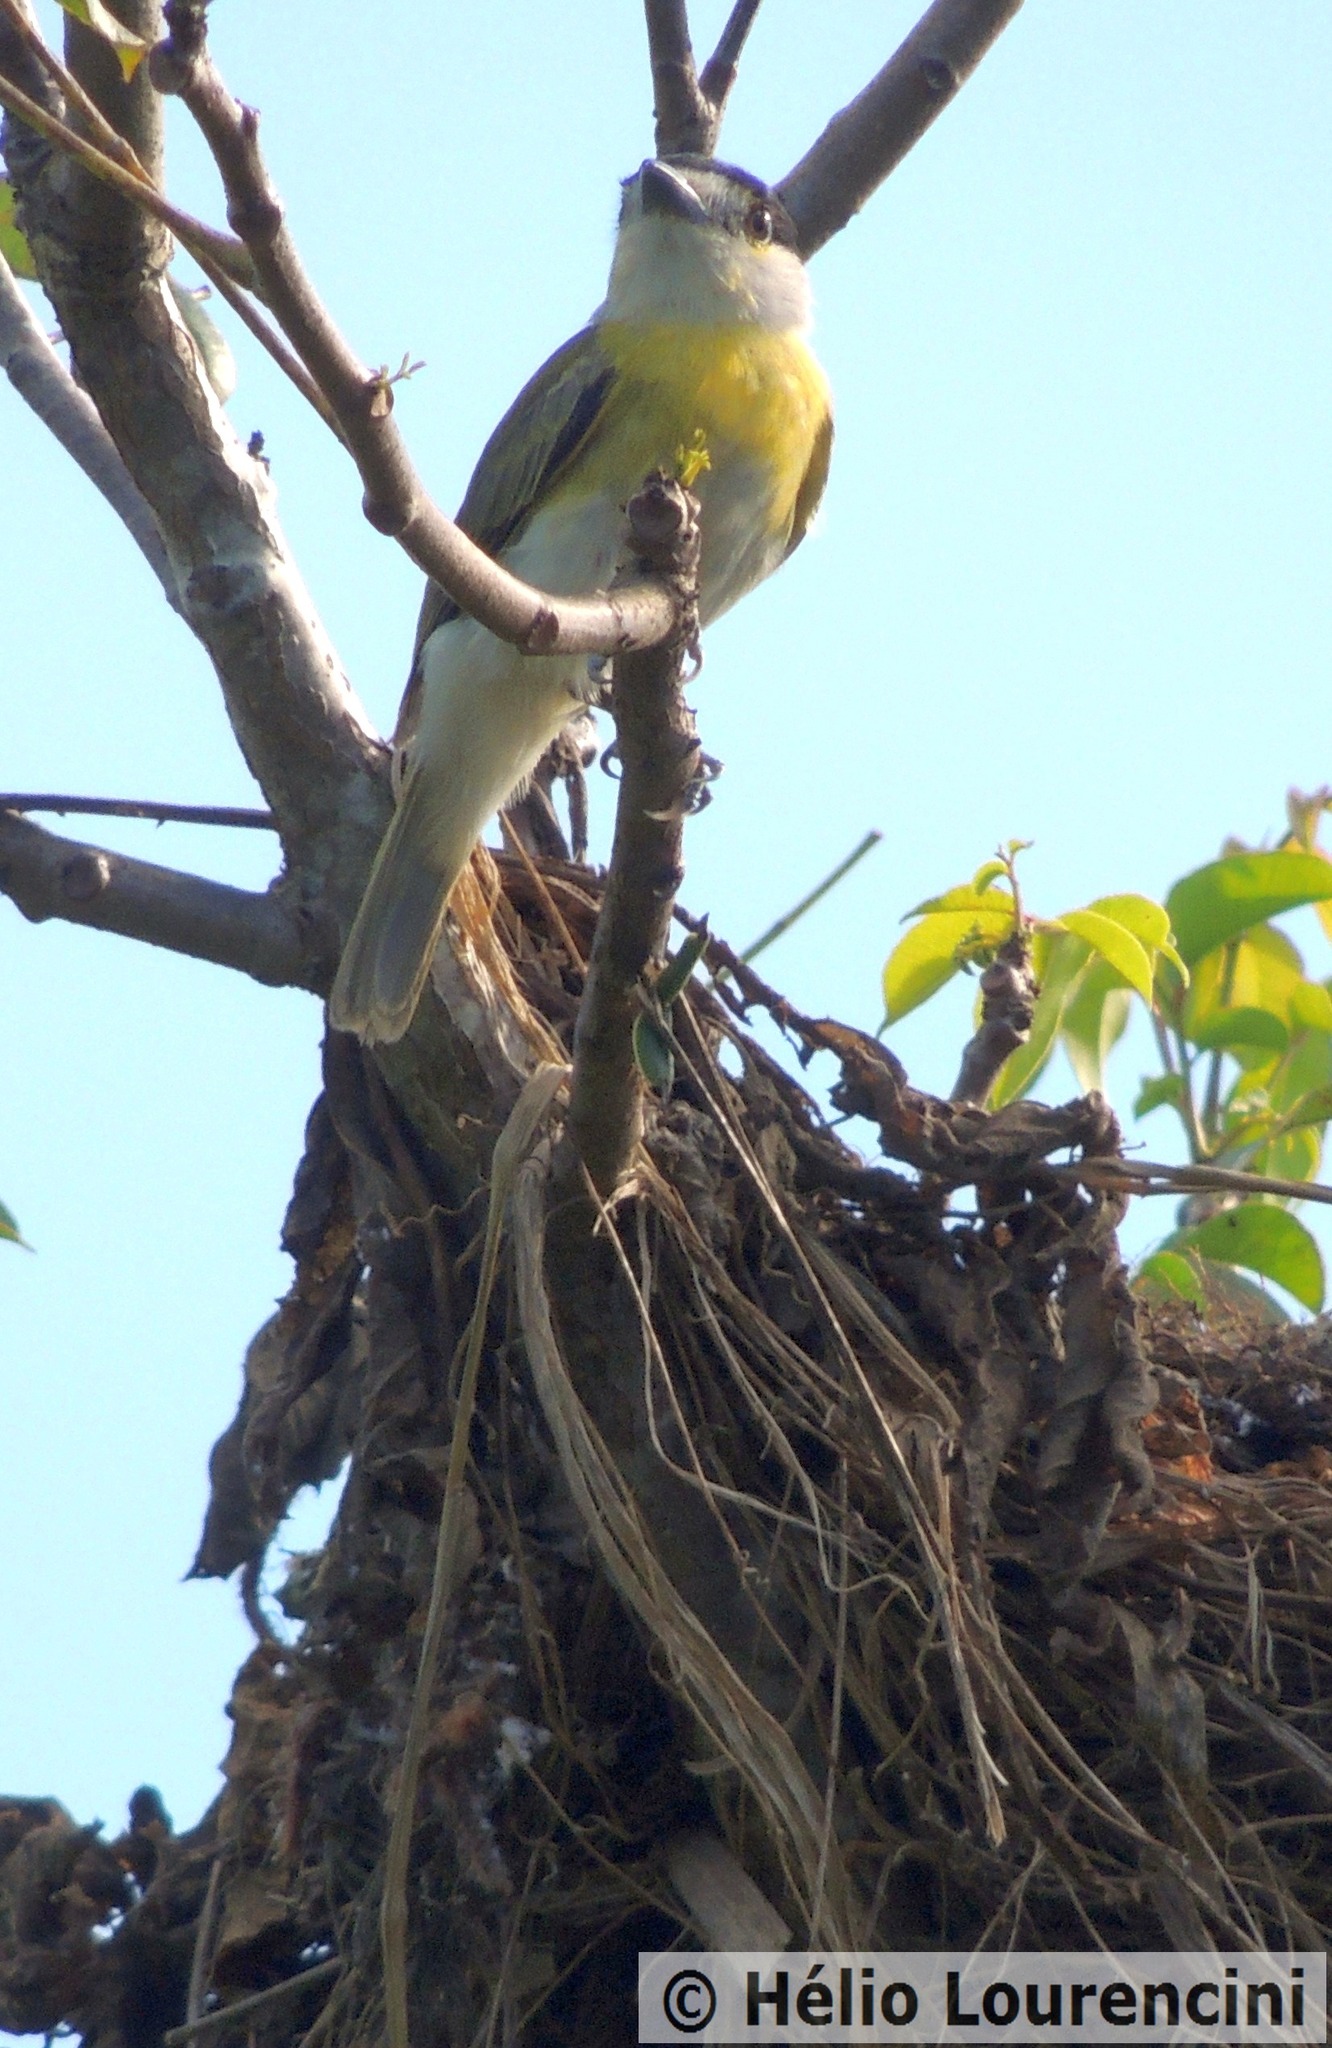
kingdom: Animalia
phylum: Chordata
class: Aves
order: Passeriformes
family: Cotingidae
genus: Pachyramphus
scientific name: Pachyramphus viridis
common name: Green-backed becard
